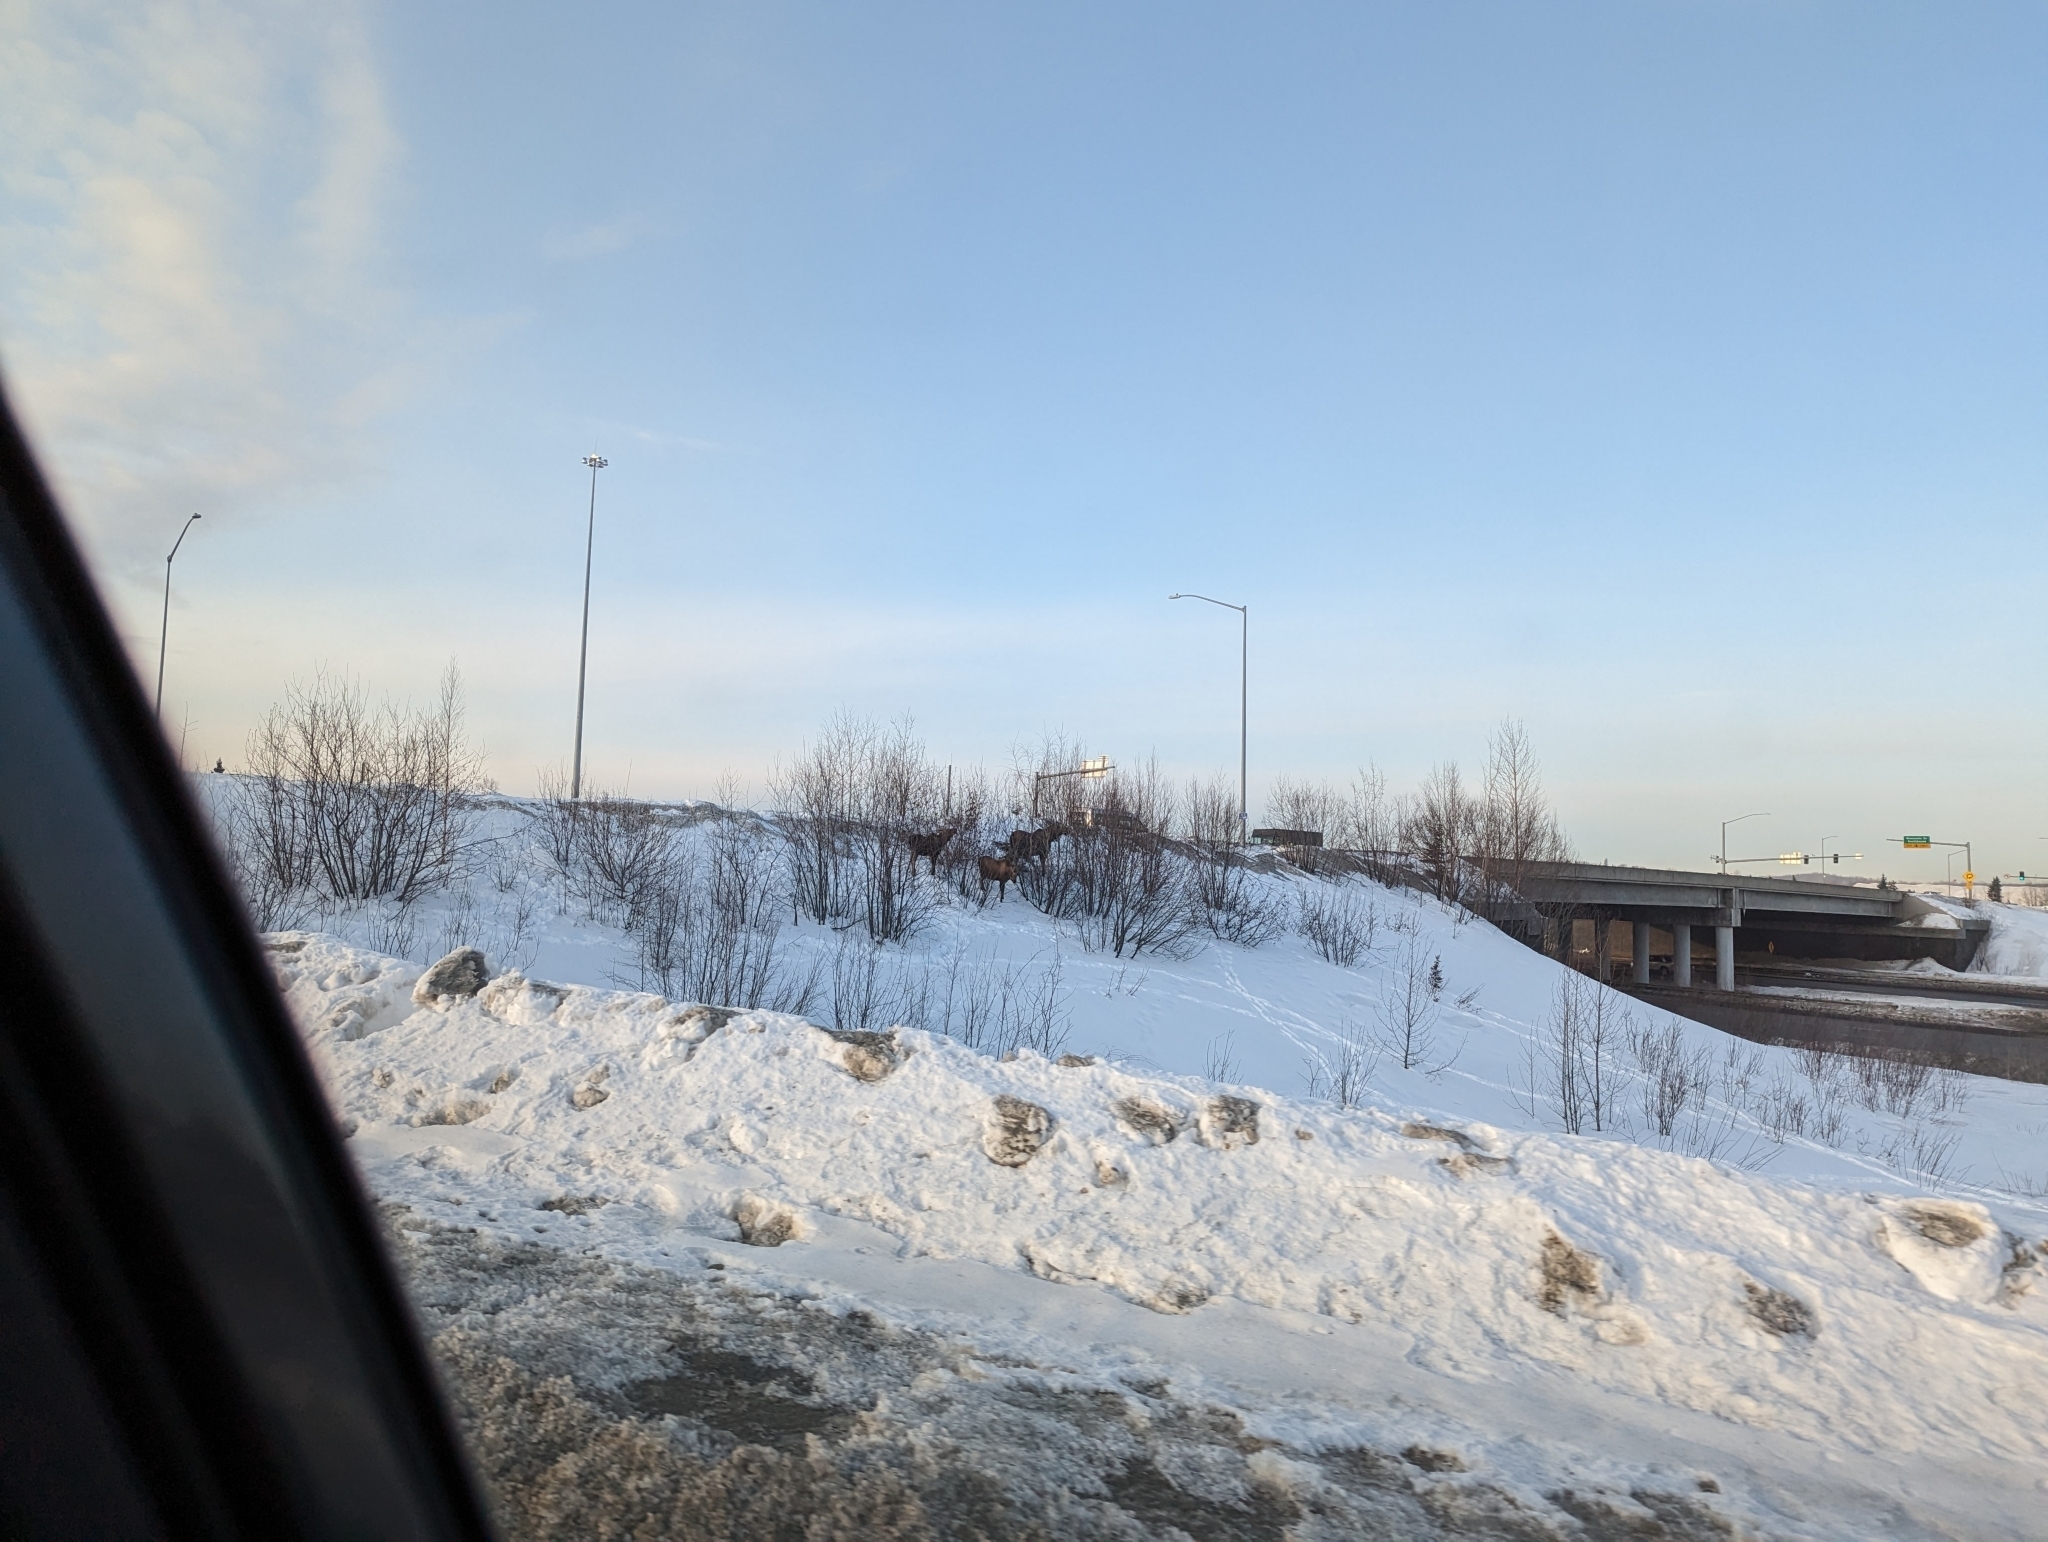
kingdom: Animalia
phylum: Chordata
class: Mammalia
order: Artiodactyla
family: Cervidae
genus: Alces
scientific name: Alces alces
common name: Moose
